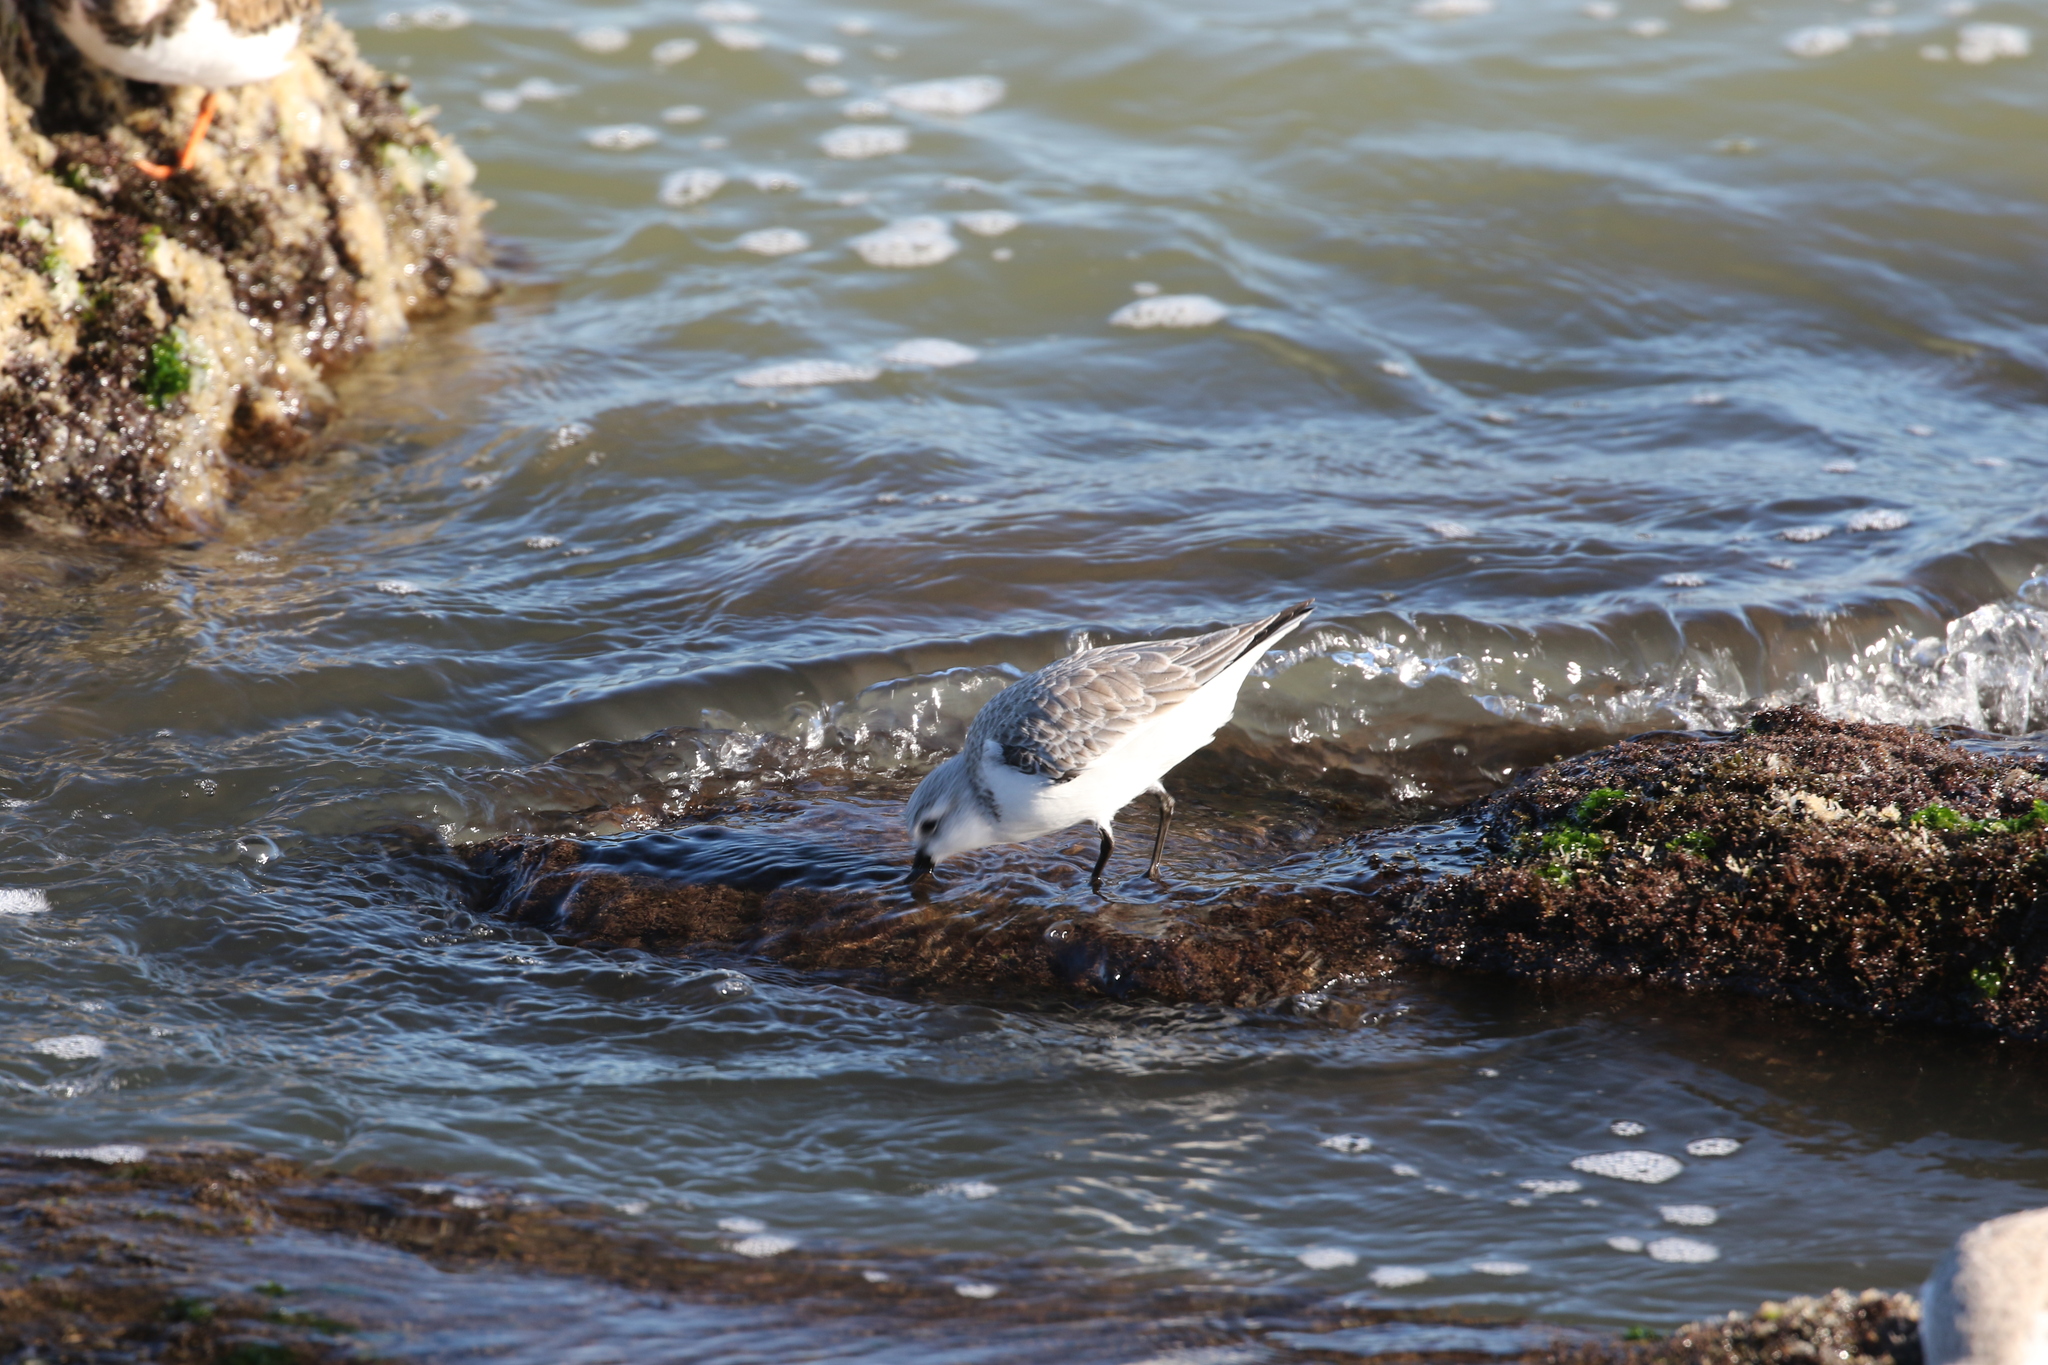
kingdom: Animalia
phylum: Chordata
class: Aves
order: Charadriiformes
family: Scolopacidae
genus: Calidris
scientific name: Calidris alba
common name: Sanderling
